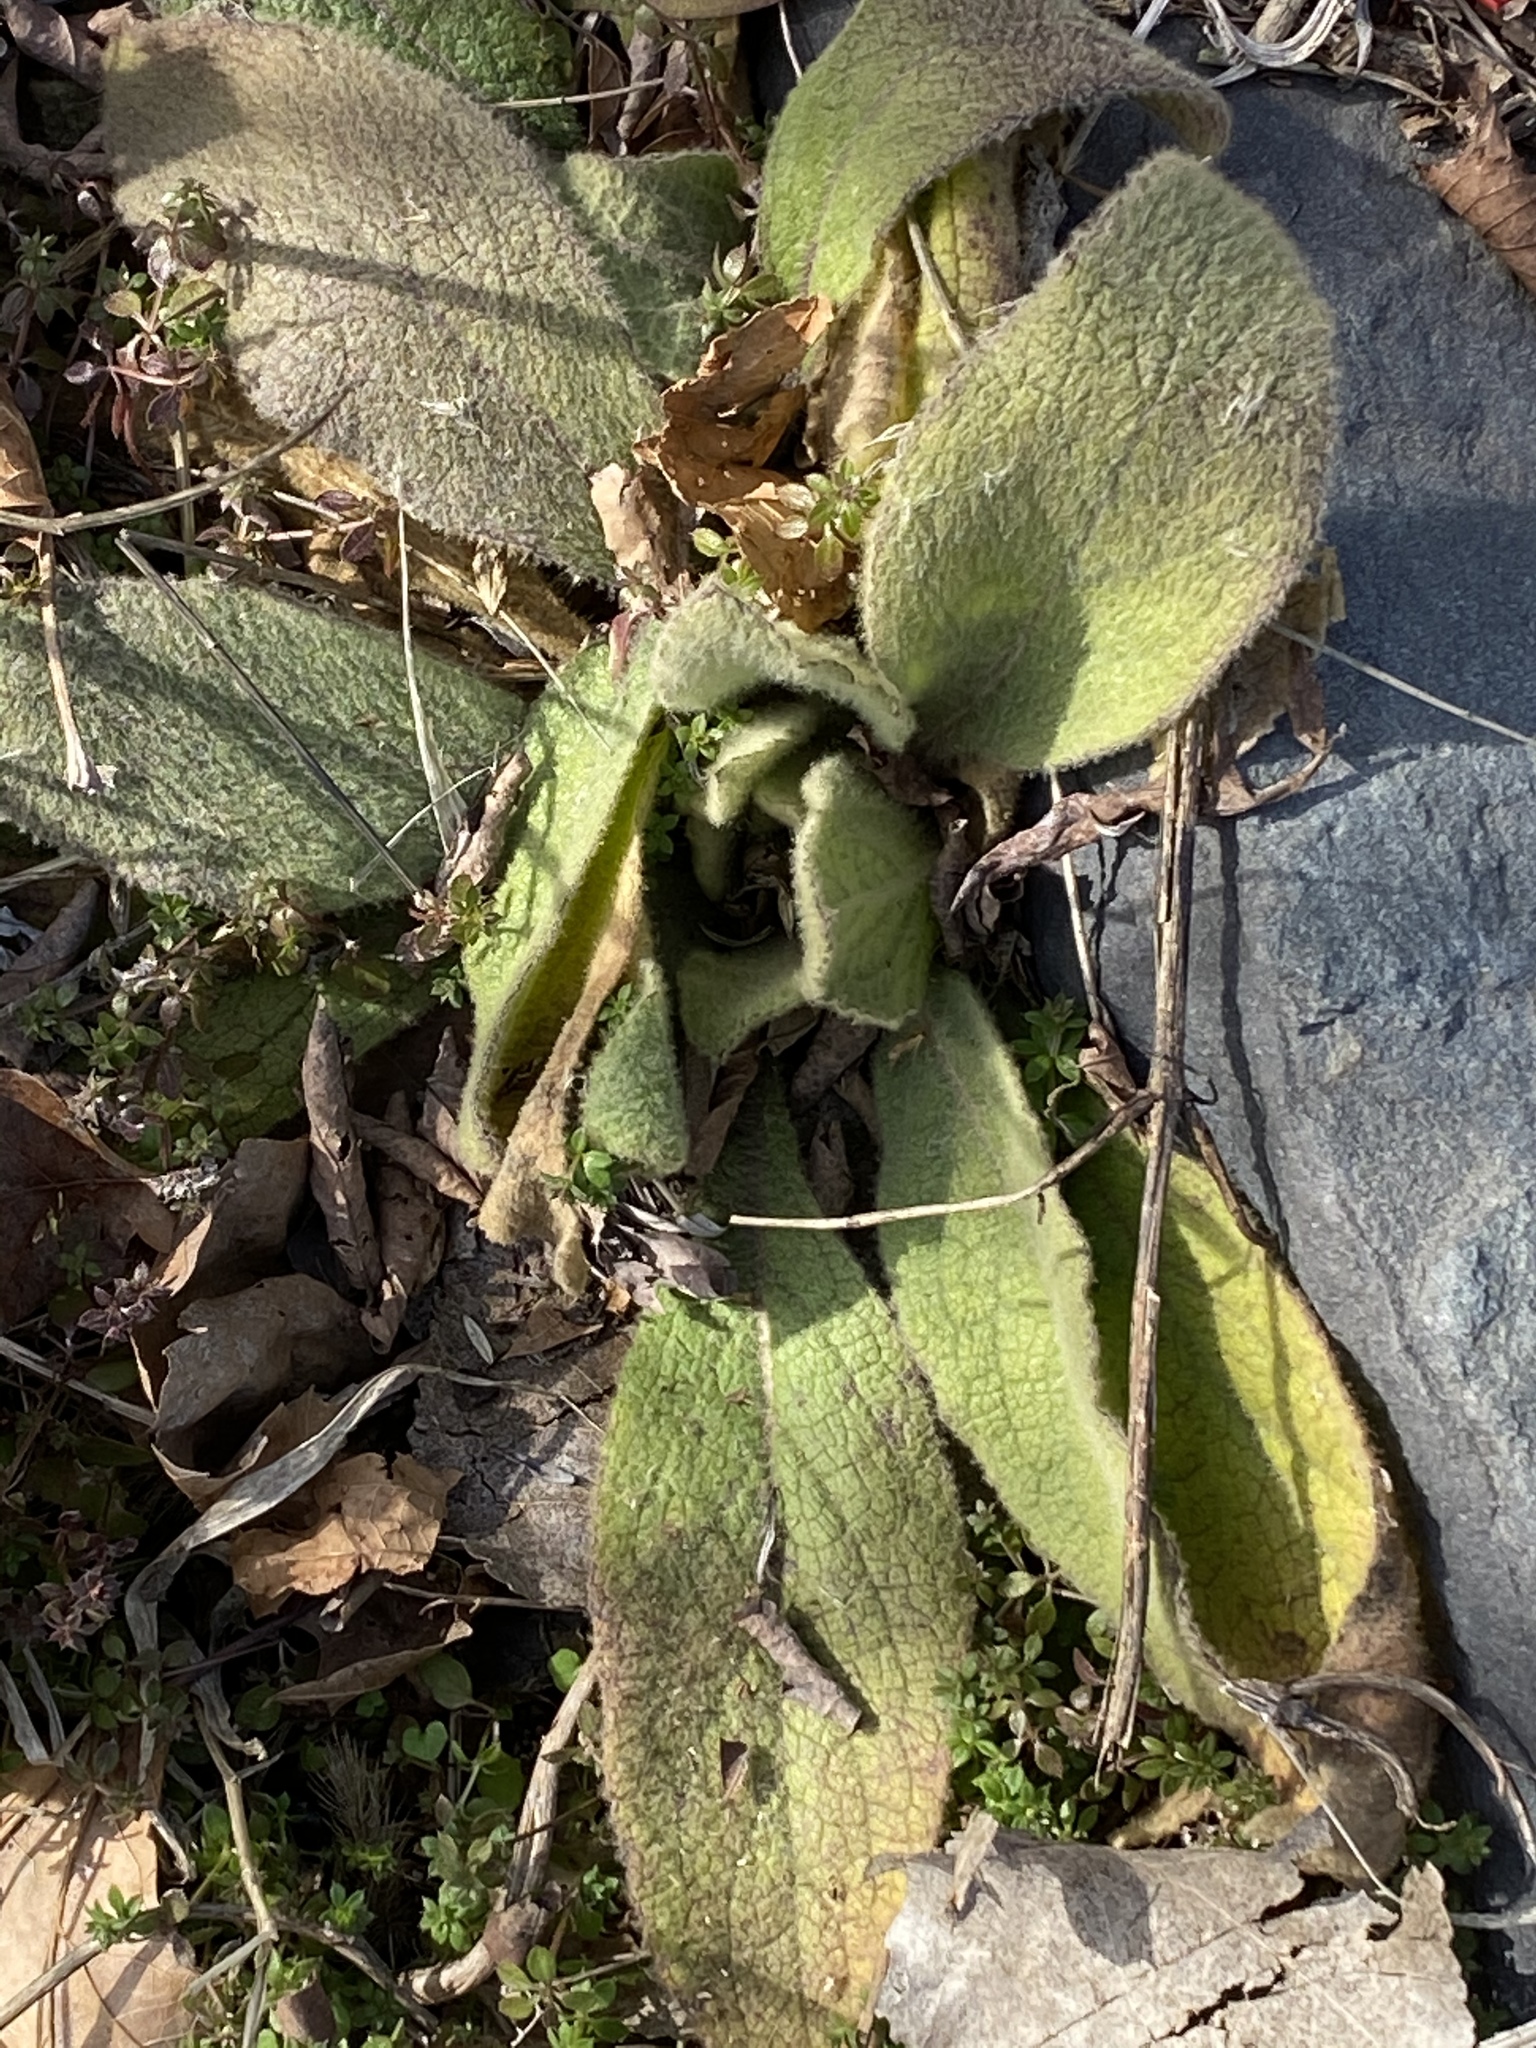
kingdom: Plantae
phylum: Tracheophyta
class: Magnoliopsida
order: Lamiales
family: Scrophulariaceae
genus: Verbascum
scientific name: Verbascum thapsus
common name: Common mullein
